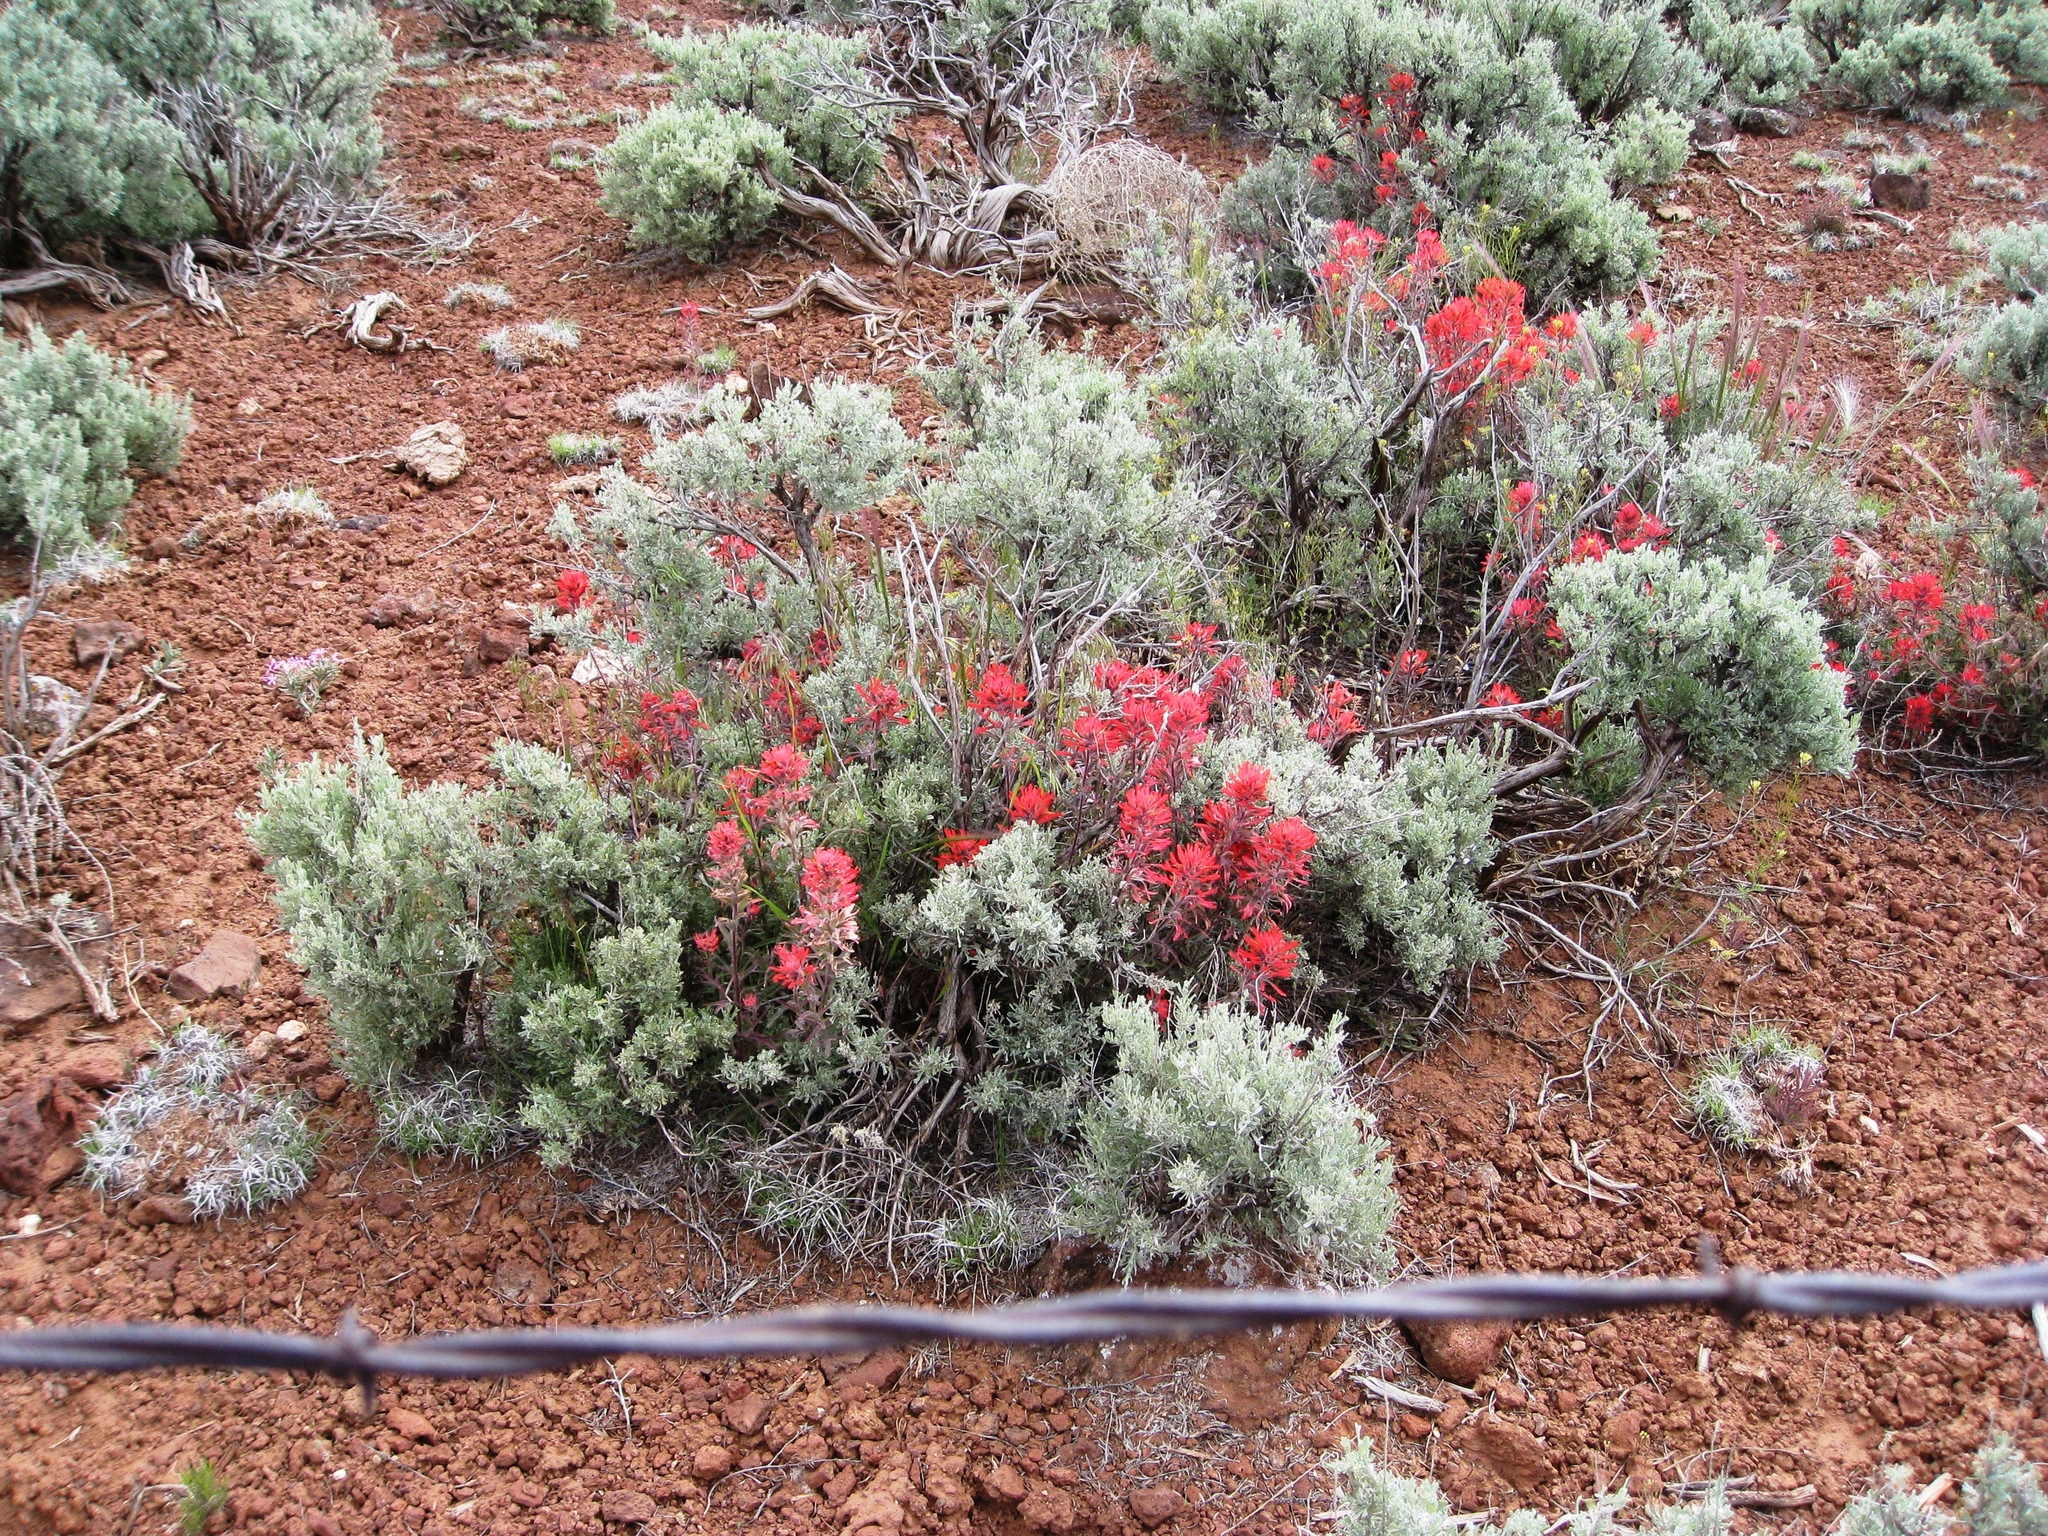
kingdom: Plantae
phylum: Tracheophyta
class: Magnoliopsida
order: Lamiales
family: Orobanchaceae
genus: Castilleja
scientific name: Castilleja chromosa
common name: Desert paintbrush
